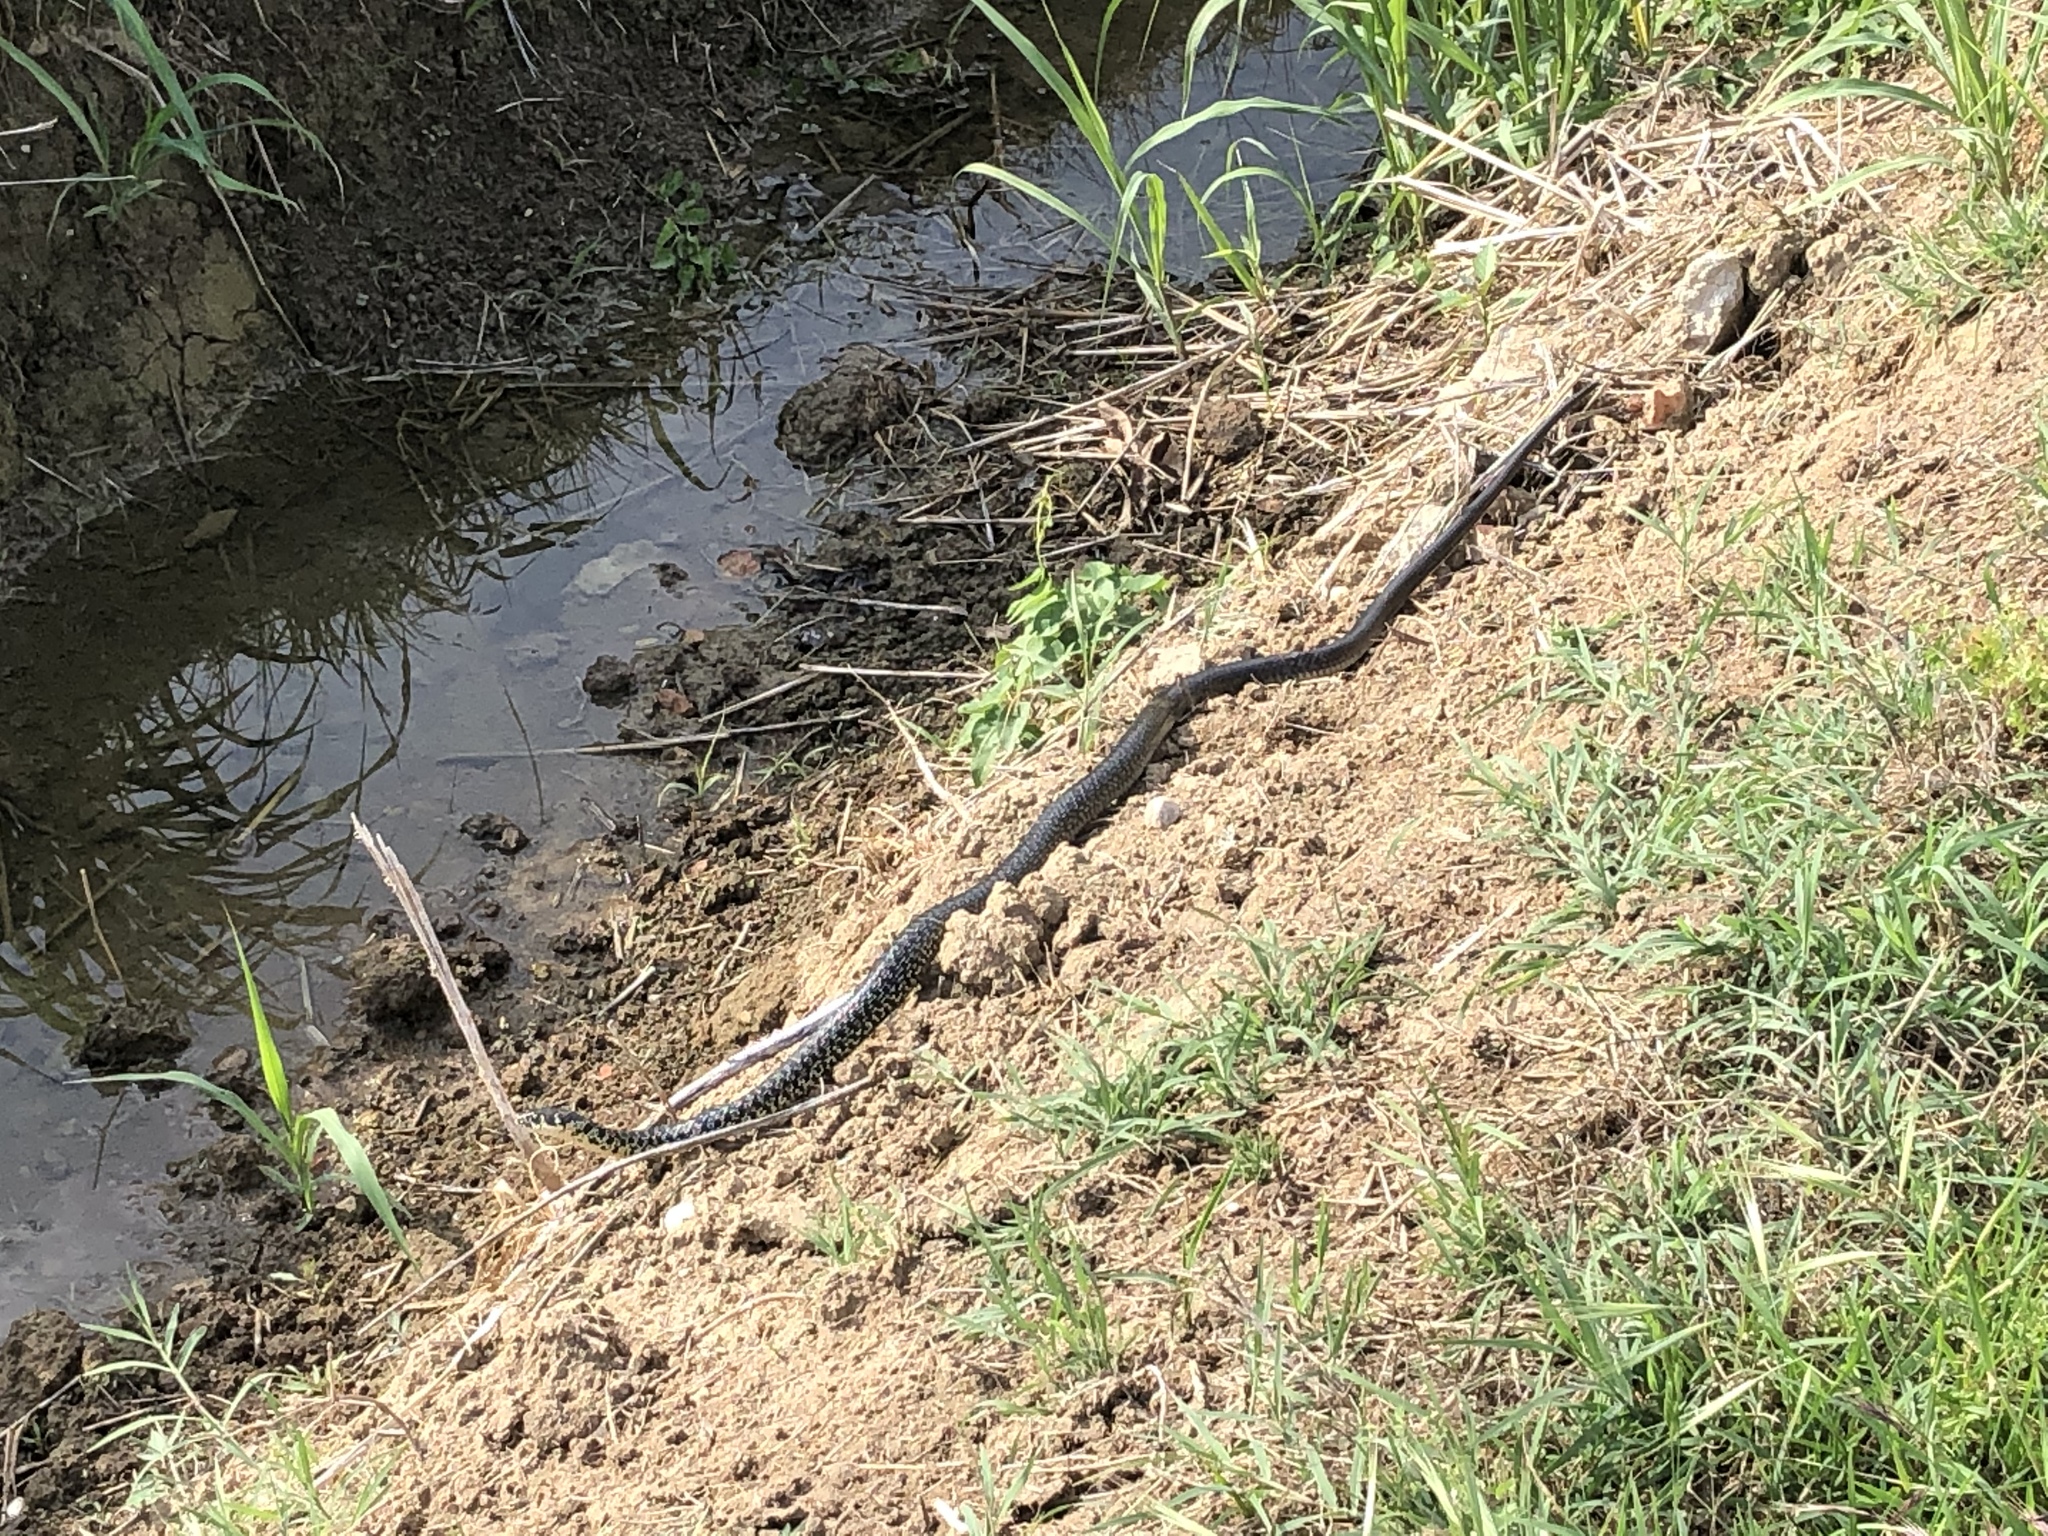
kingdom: Animalia
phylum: Chordata
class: Squamata
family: Colubridae
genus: Hierophis
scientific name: Hierophis viridiflavus
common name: Green whip snake
